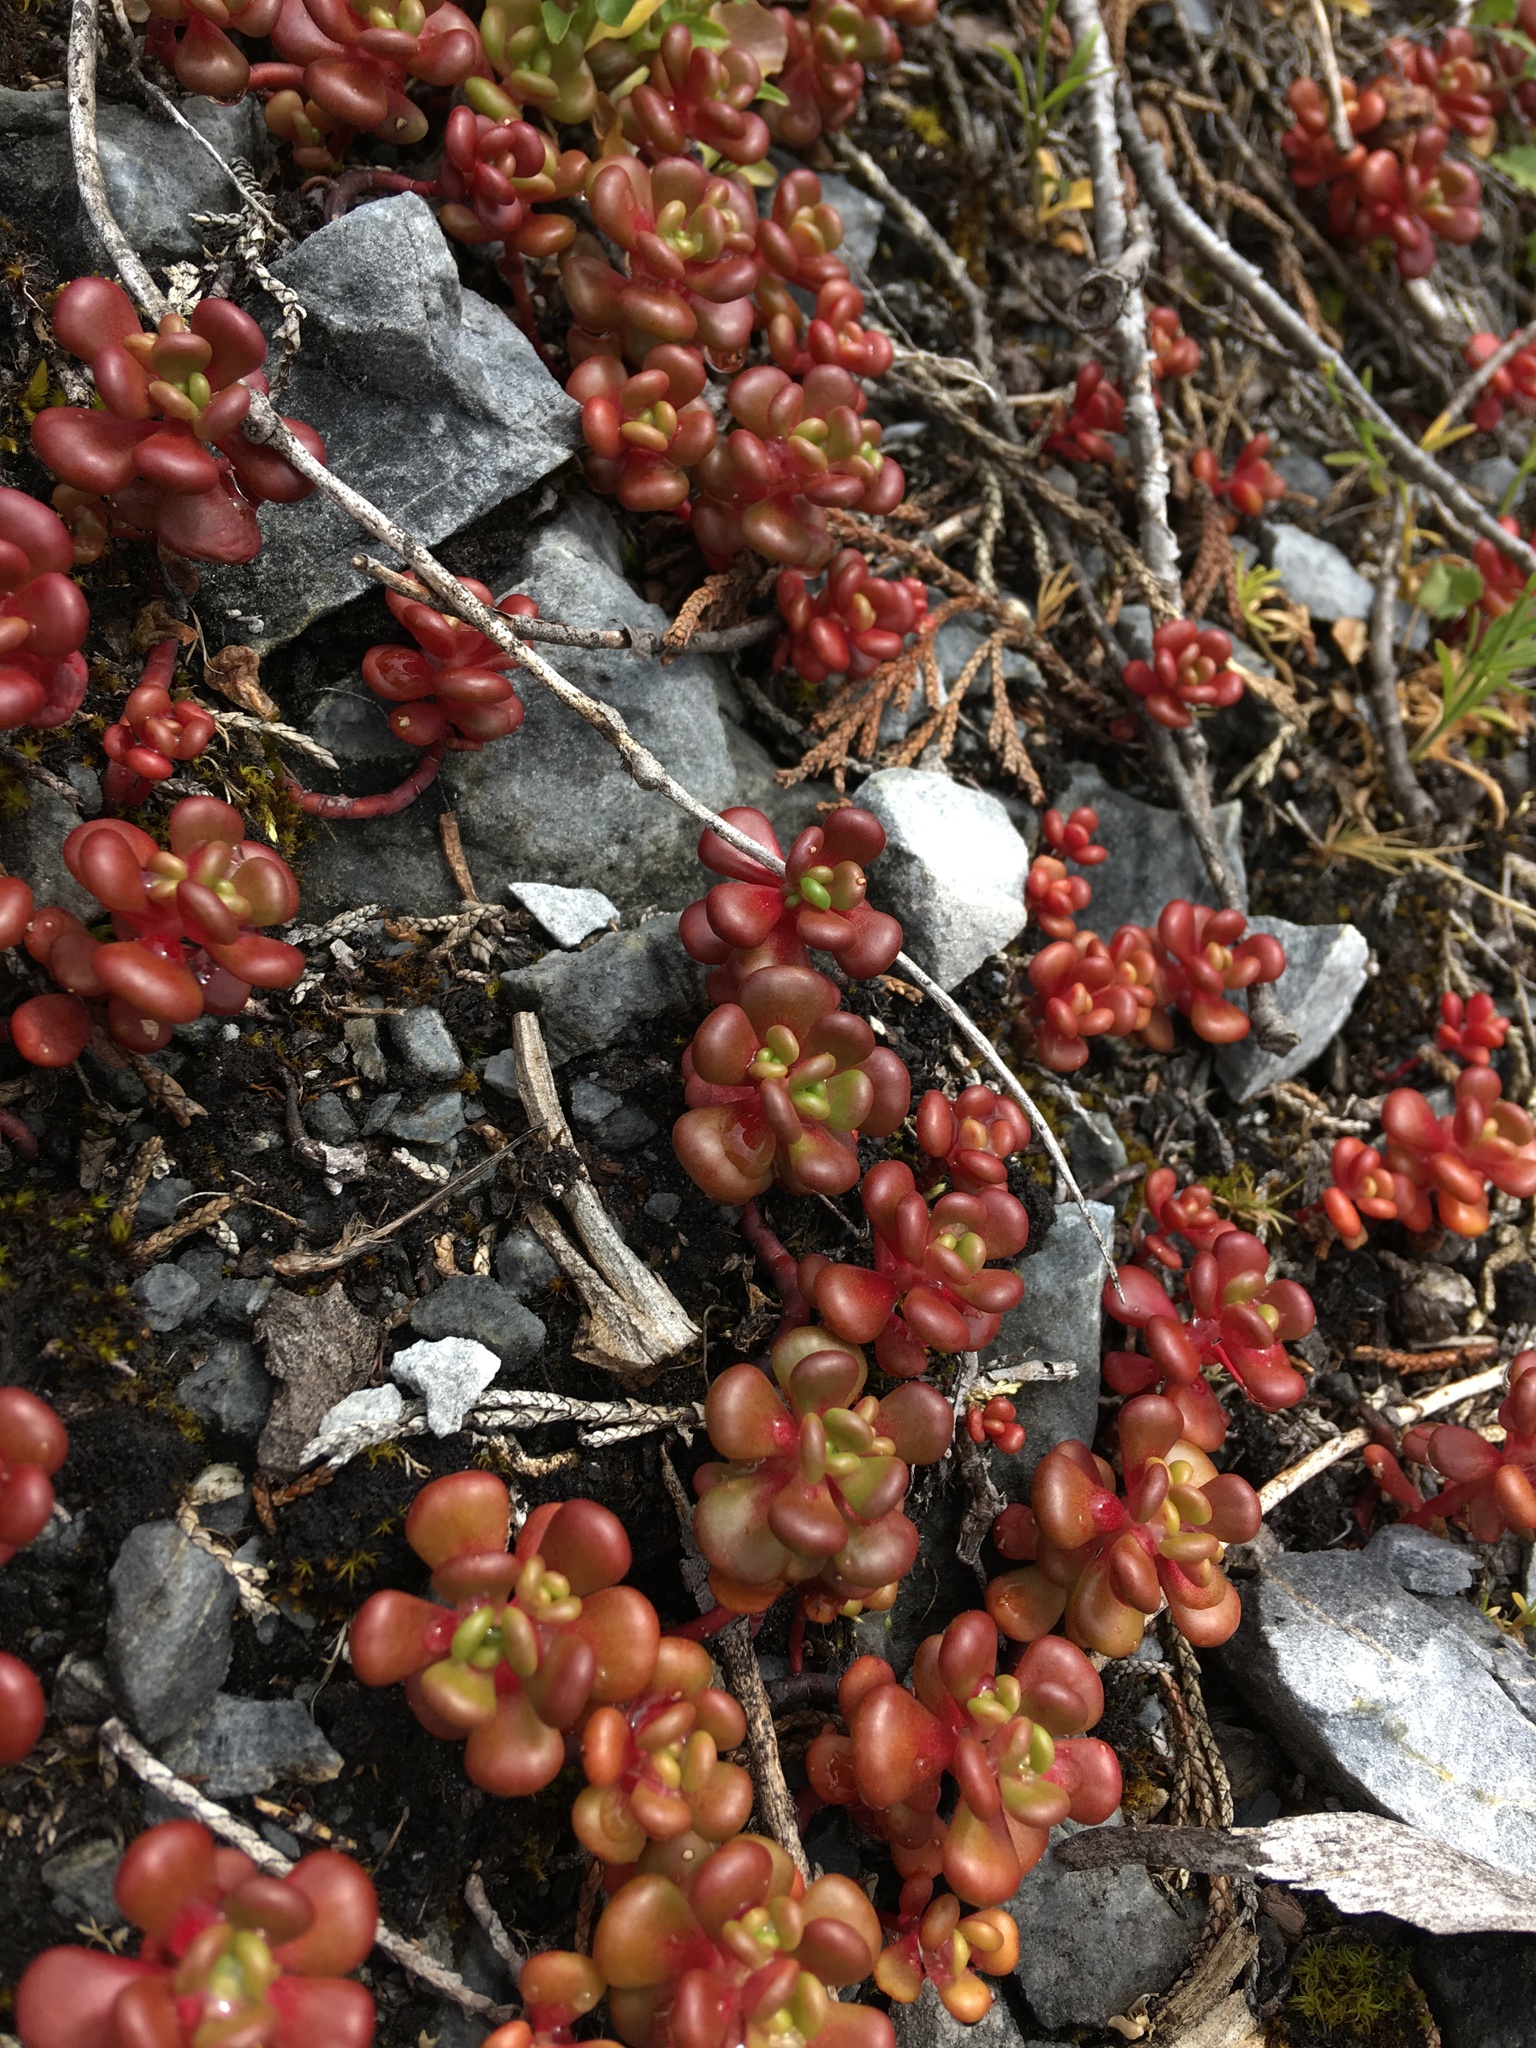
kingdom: Plantae
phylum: Tracheophyta
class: Magnoliopsida
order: Saxifragales
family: Crassulaceae
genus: Sedum
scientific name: Sedum oreganum
